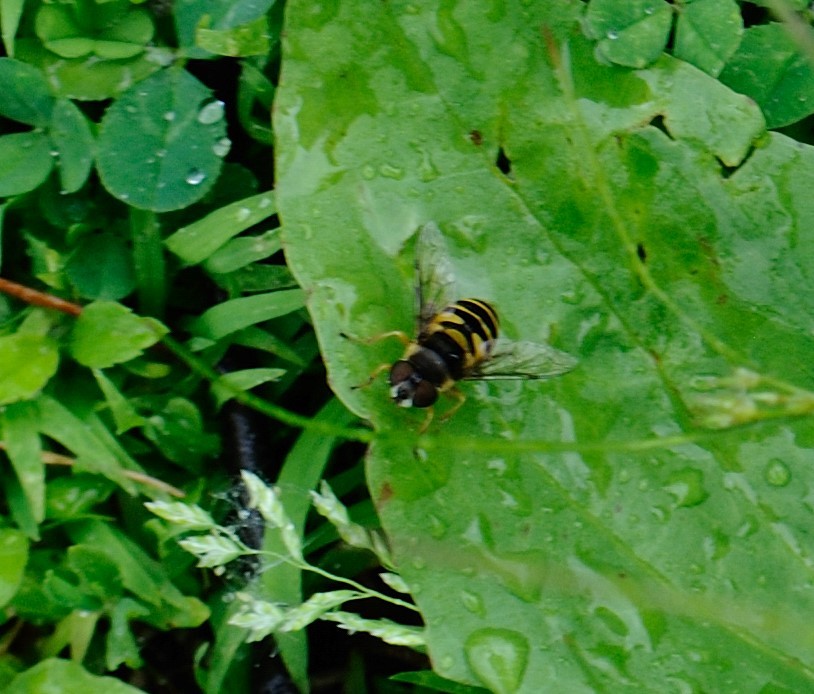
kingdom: Animalia
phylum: Arthropoda
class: Insecta
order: Diptera
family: Syrphidae
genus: Eristalis
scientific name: Eristalis transversa
